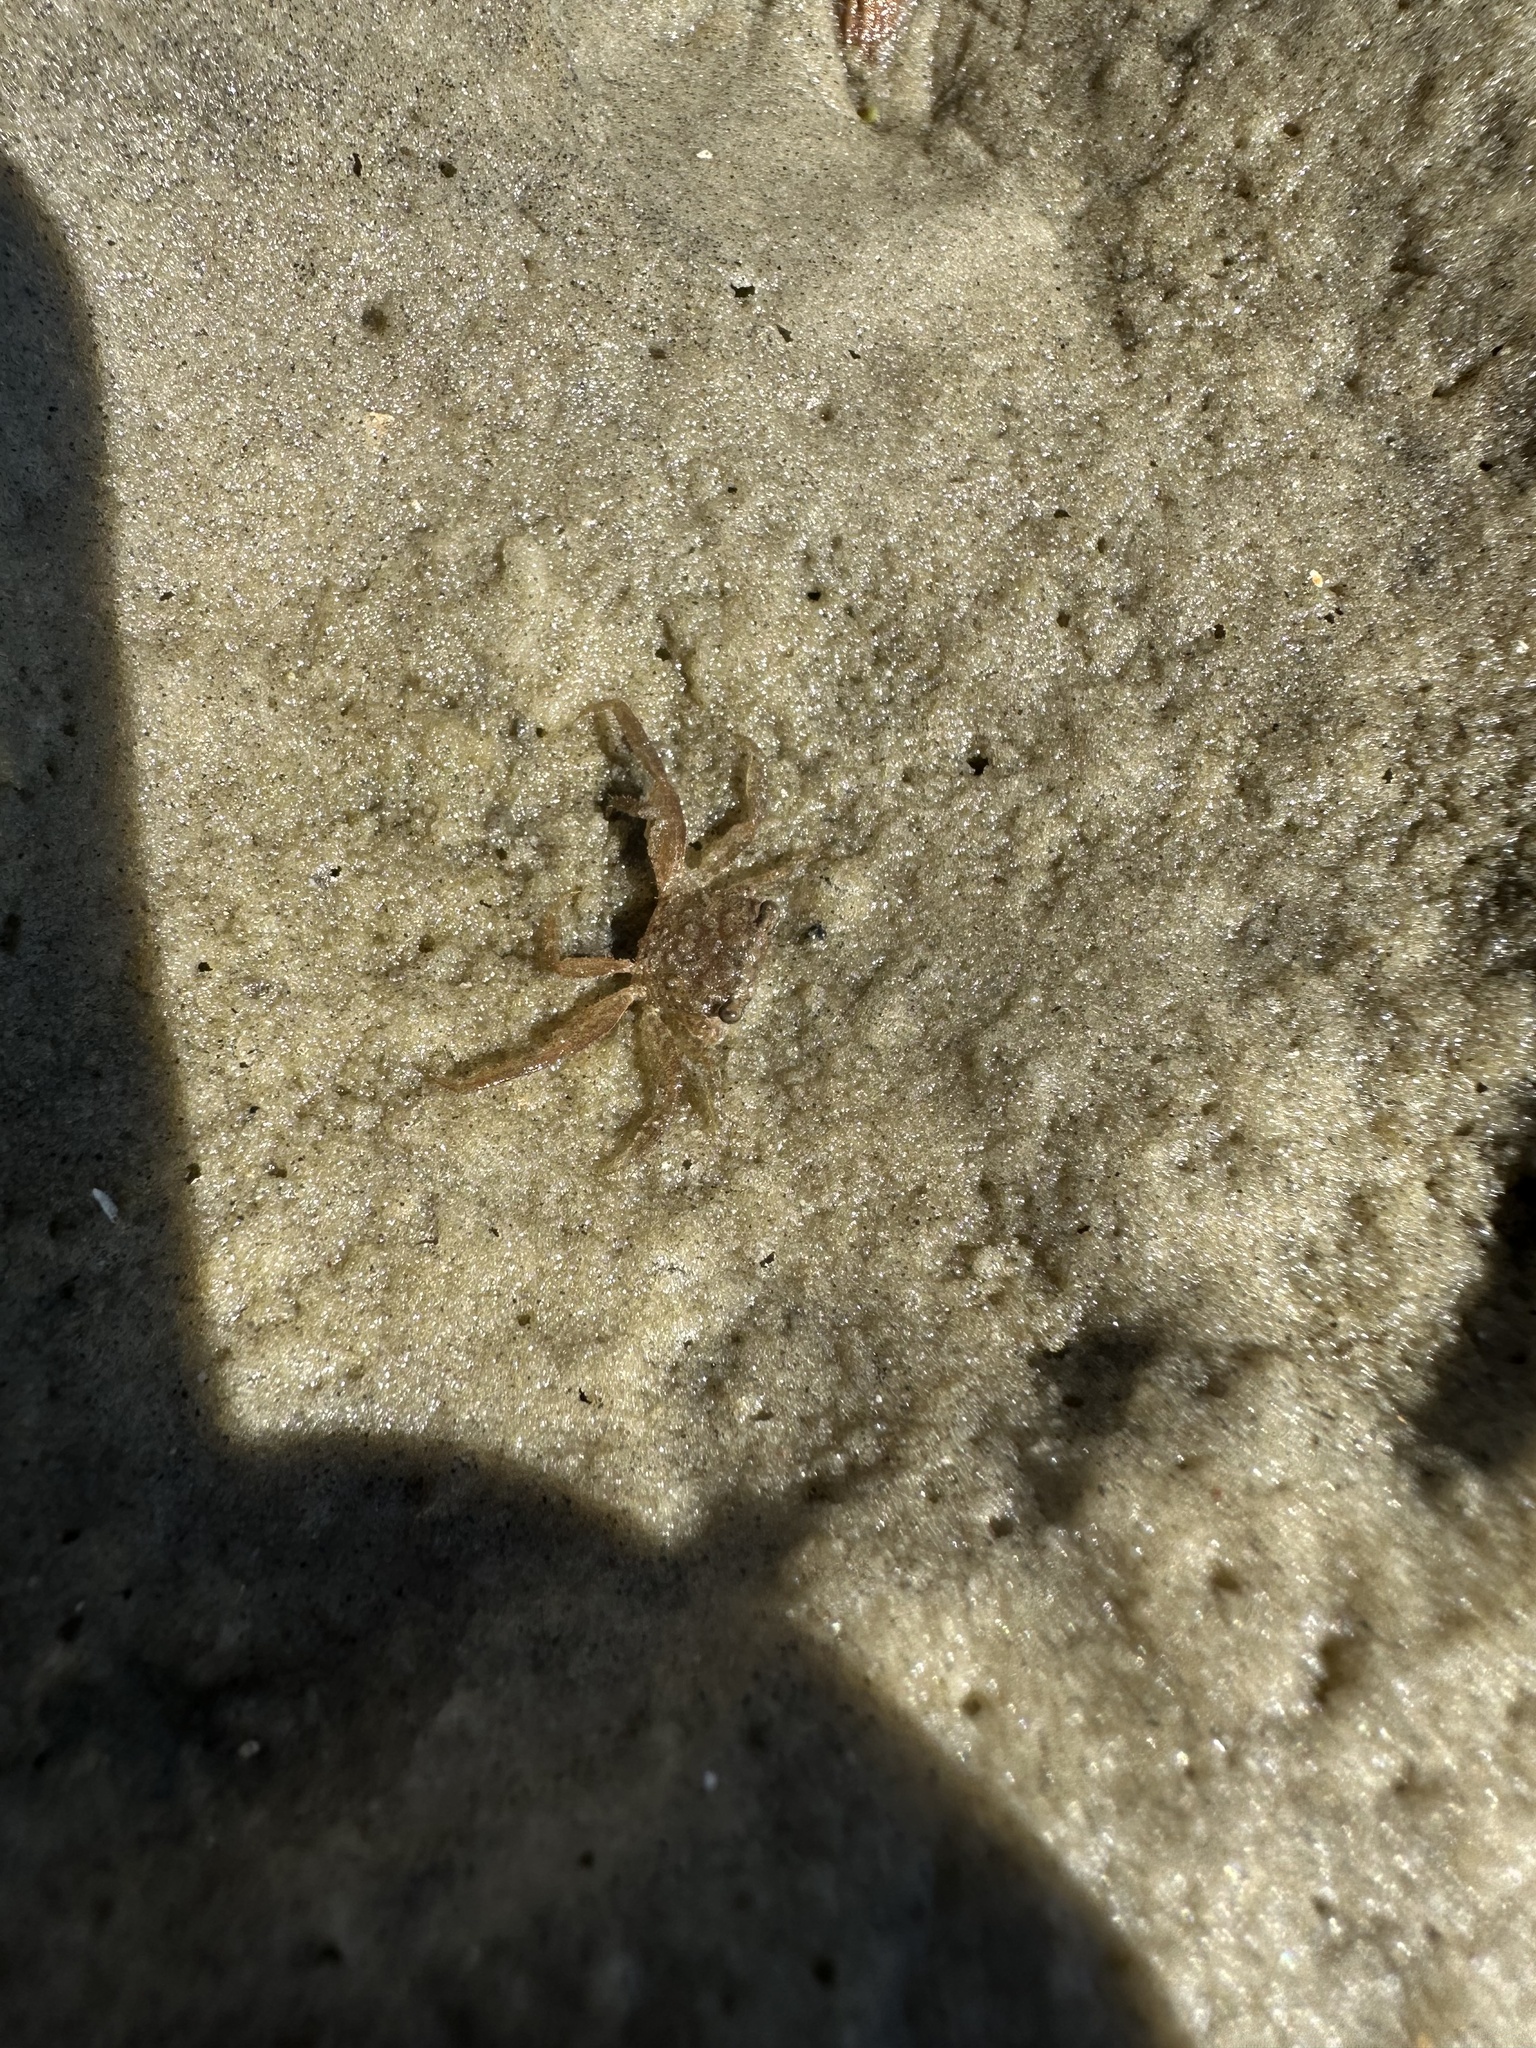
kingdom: Animalia
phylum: Arthropoda
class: Malacostraca
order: Decapoda
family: Sesarmidae
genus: Armases
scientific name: Armases cinereum
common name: Squareback marsh crab
